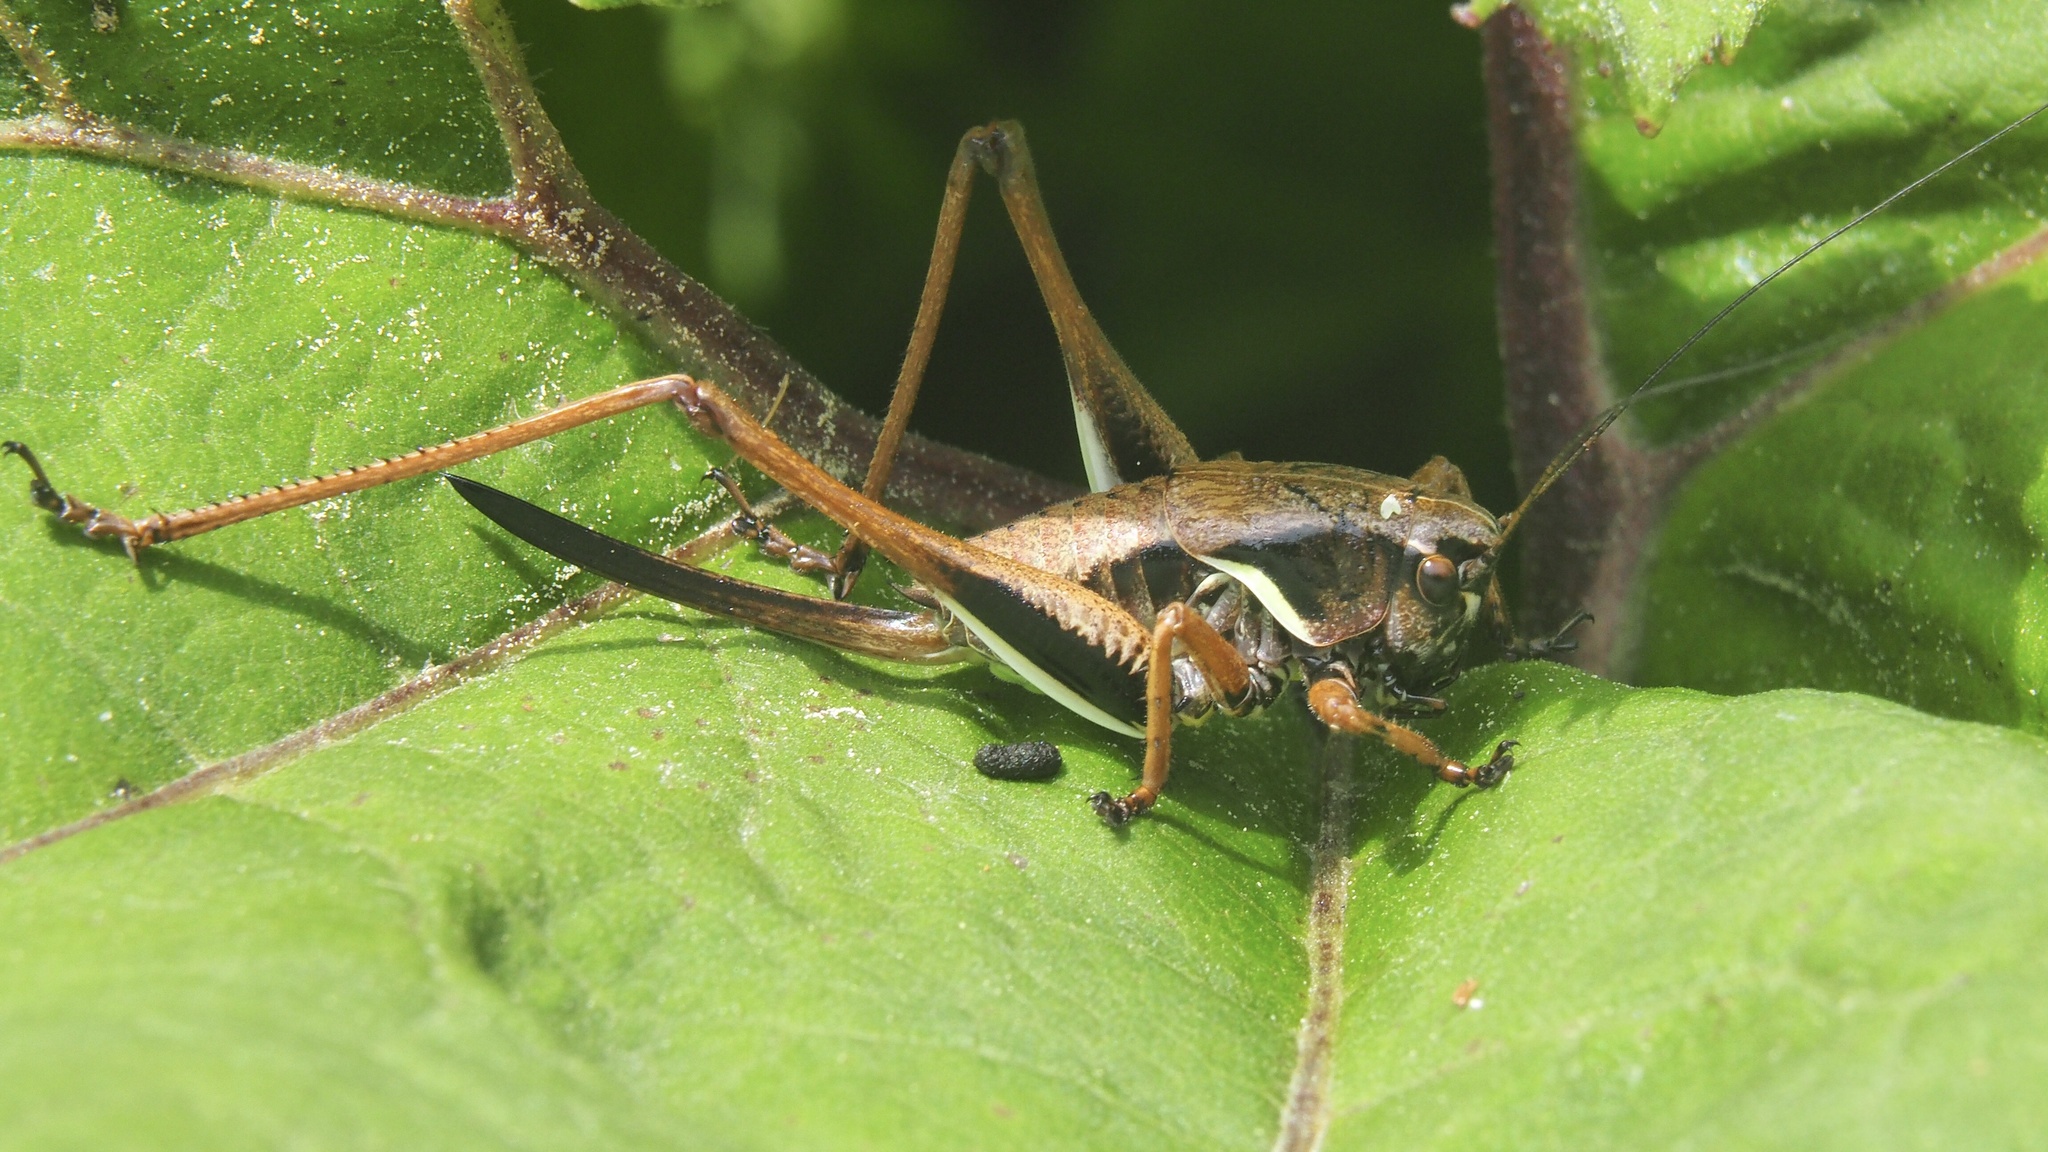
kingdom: Animalia
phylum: Arthropoda
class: Insecta
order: Orthoptera
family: Tettigoniidae
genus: Pholidoptera
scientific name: Pholidoptera aptera
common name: Alpine dark bush-cricket
